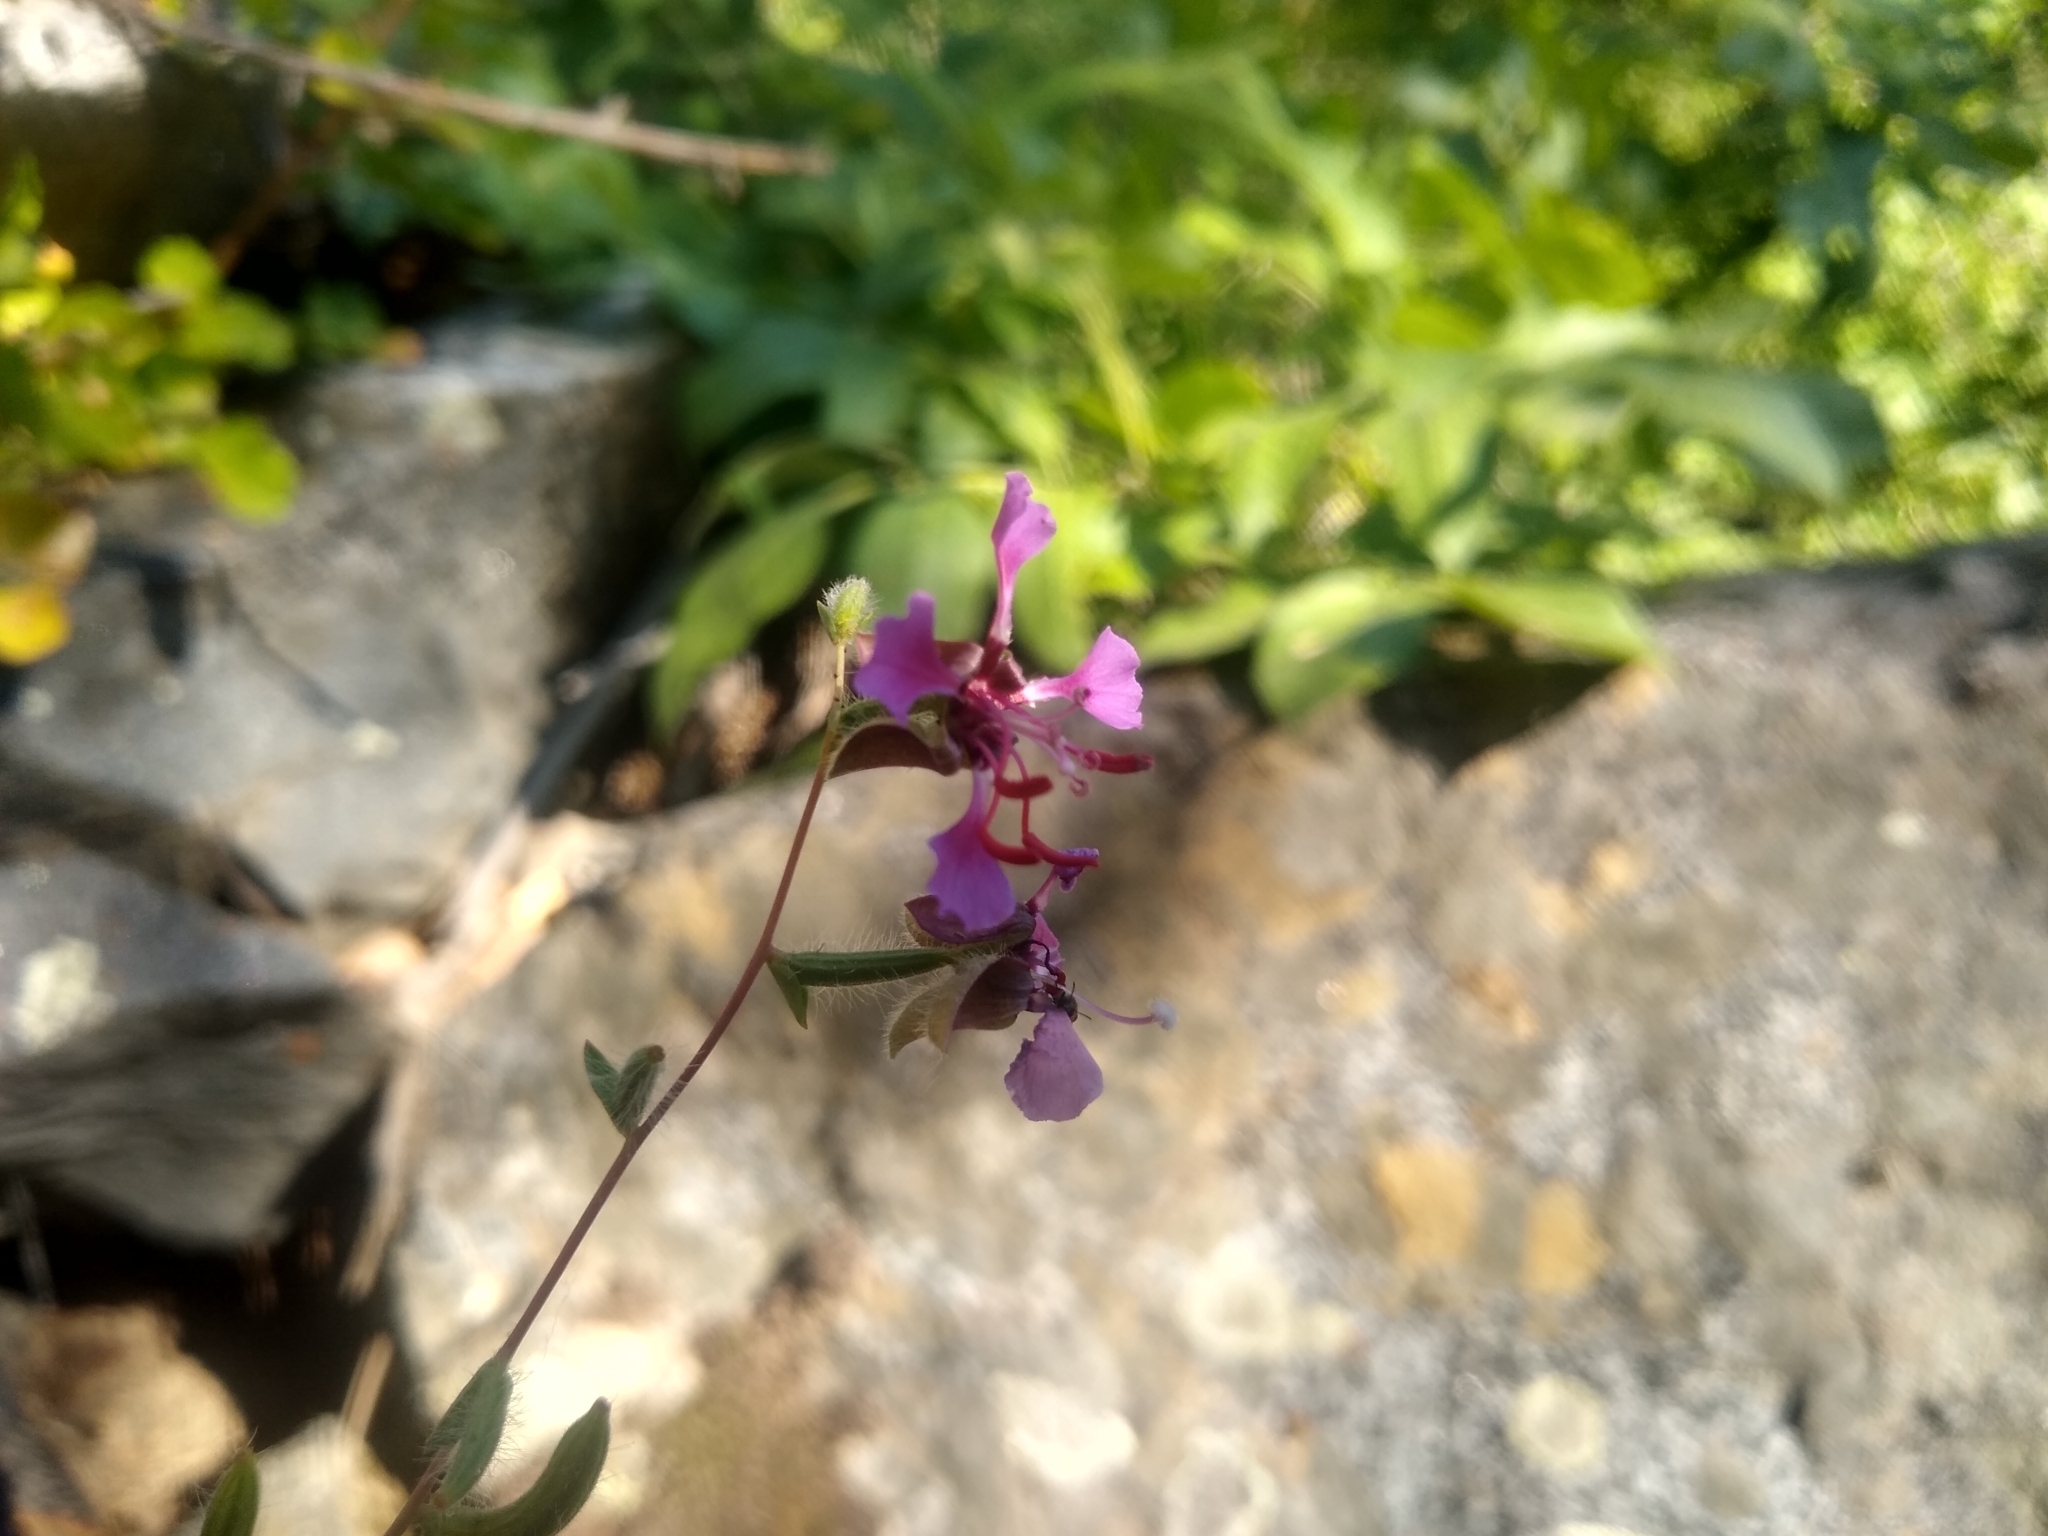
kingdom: Plantae
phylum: Tracheophyta
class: Magnoliopsida
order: Myrtales
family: Onagraceae
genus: Clarkia
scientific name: Clarkia unguiculata
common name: Clarkia
